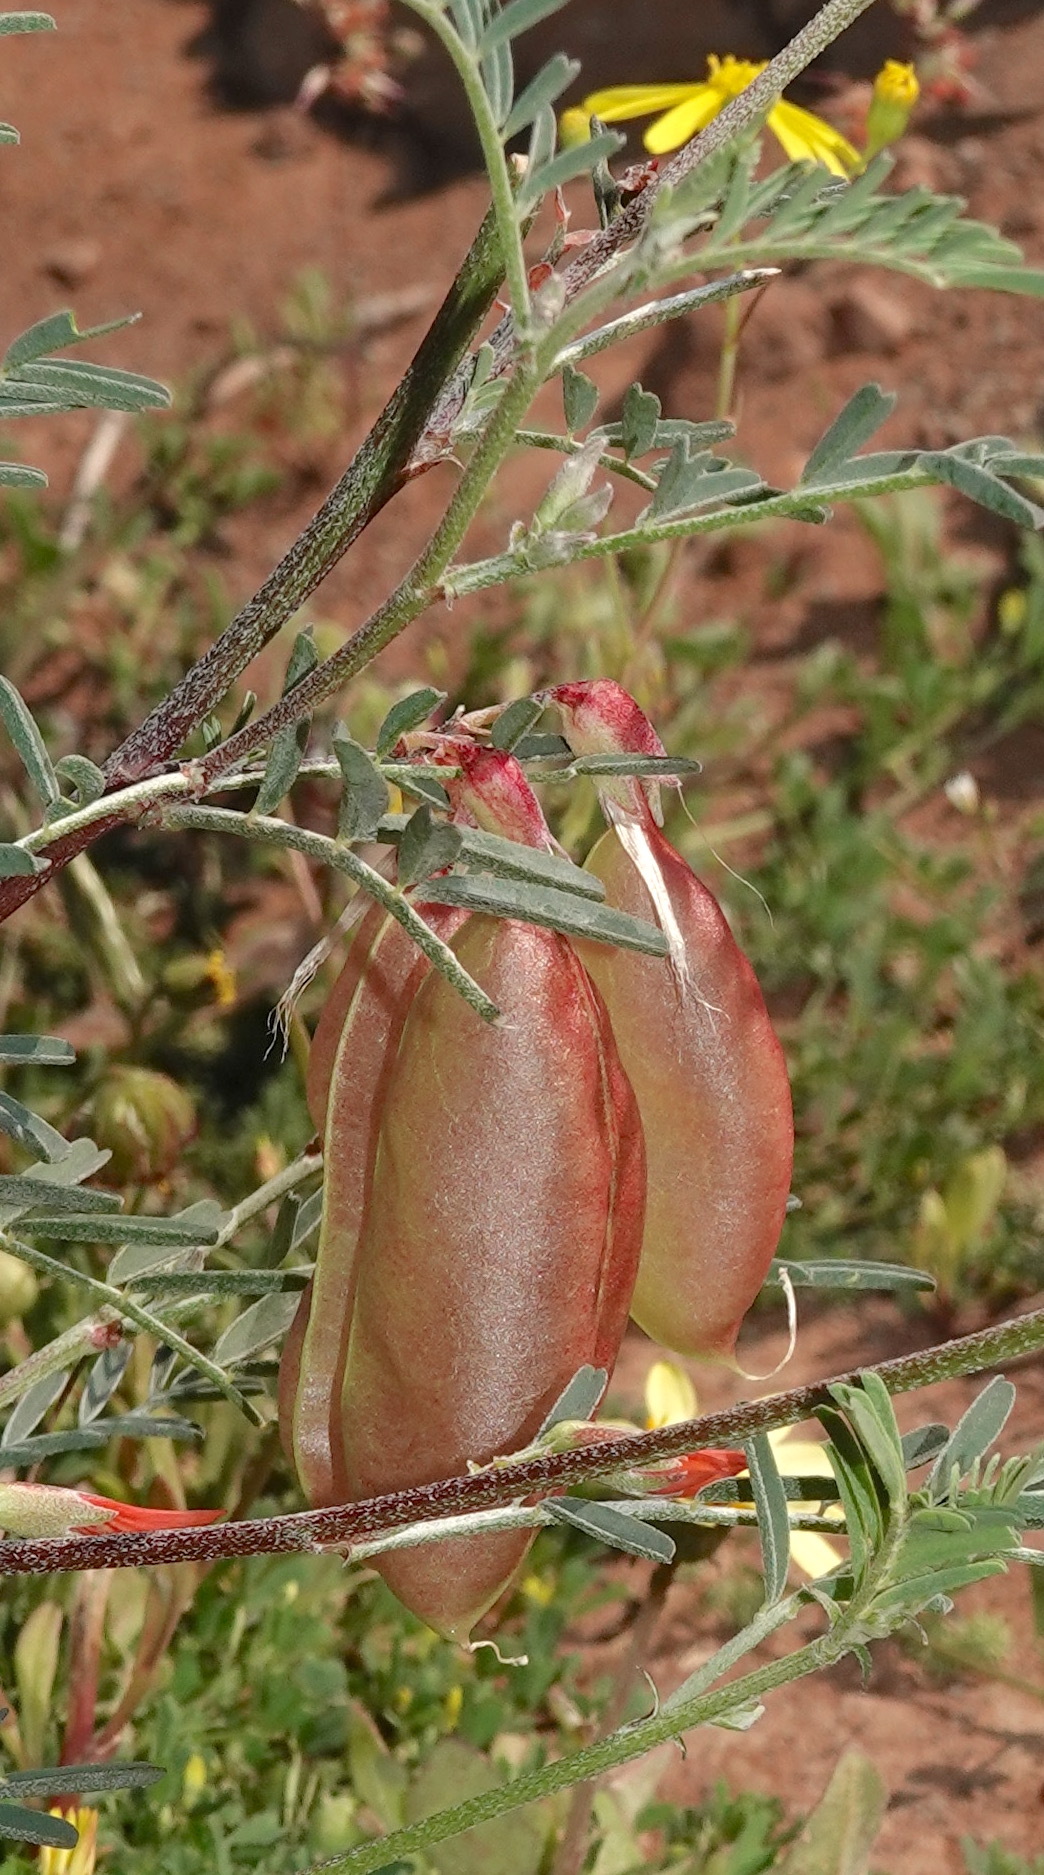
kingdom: Plantae
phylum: Tracheophyta
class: Magnoliopsida
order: Fabales
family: Fabaceae
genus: Lessertia
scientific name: Lessertia frutescens
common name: Balloon-pea
